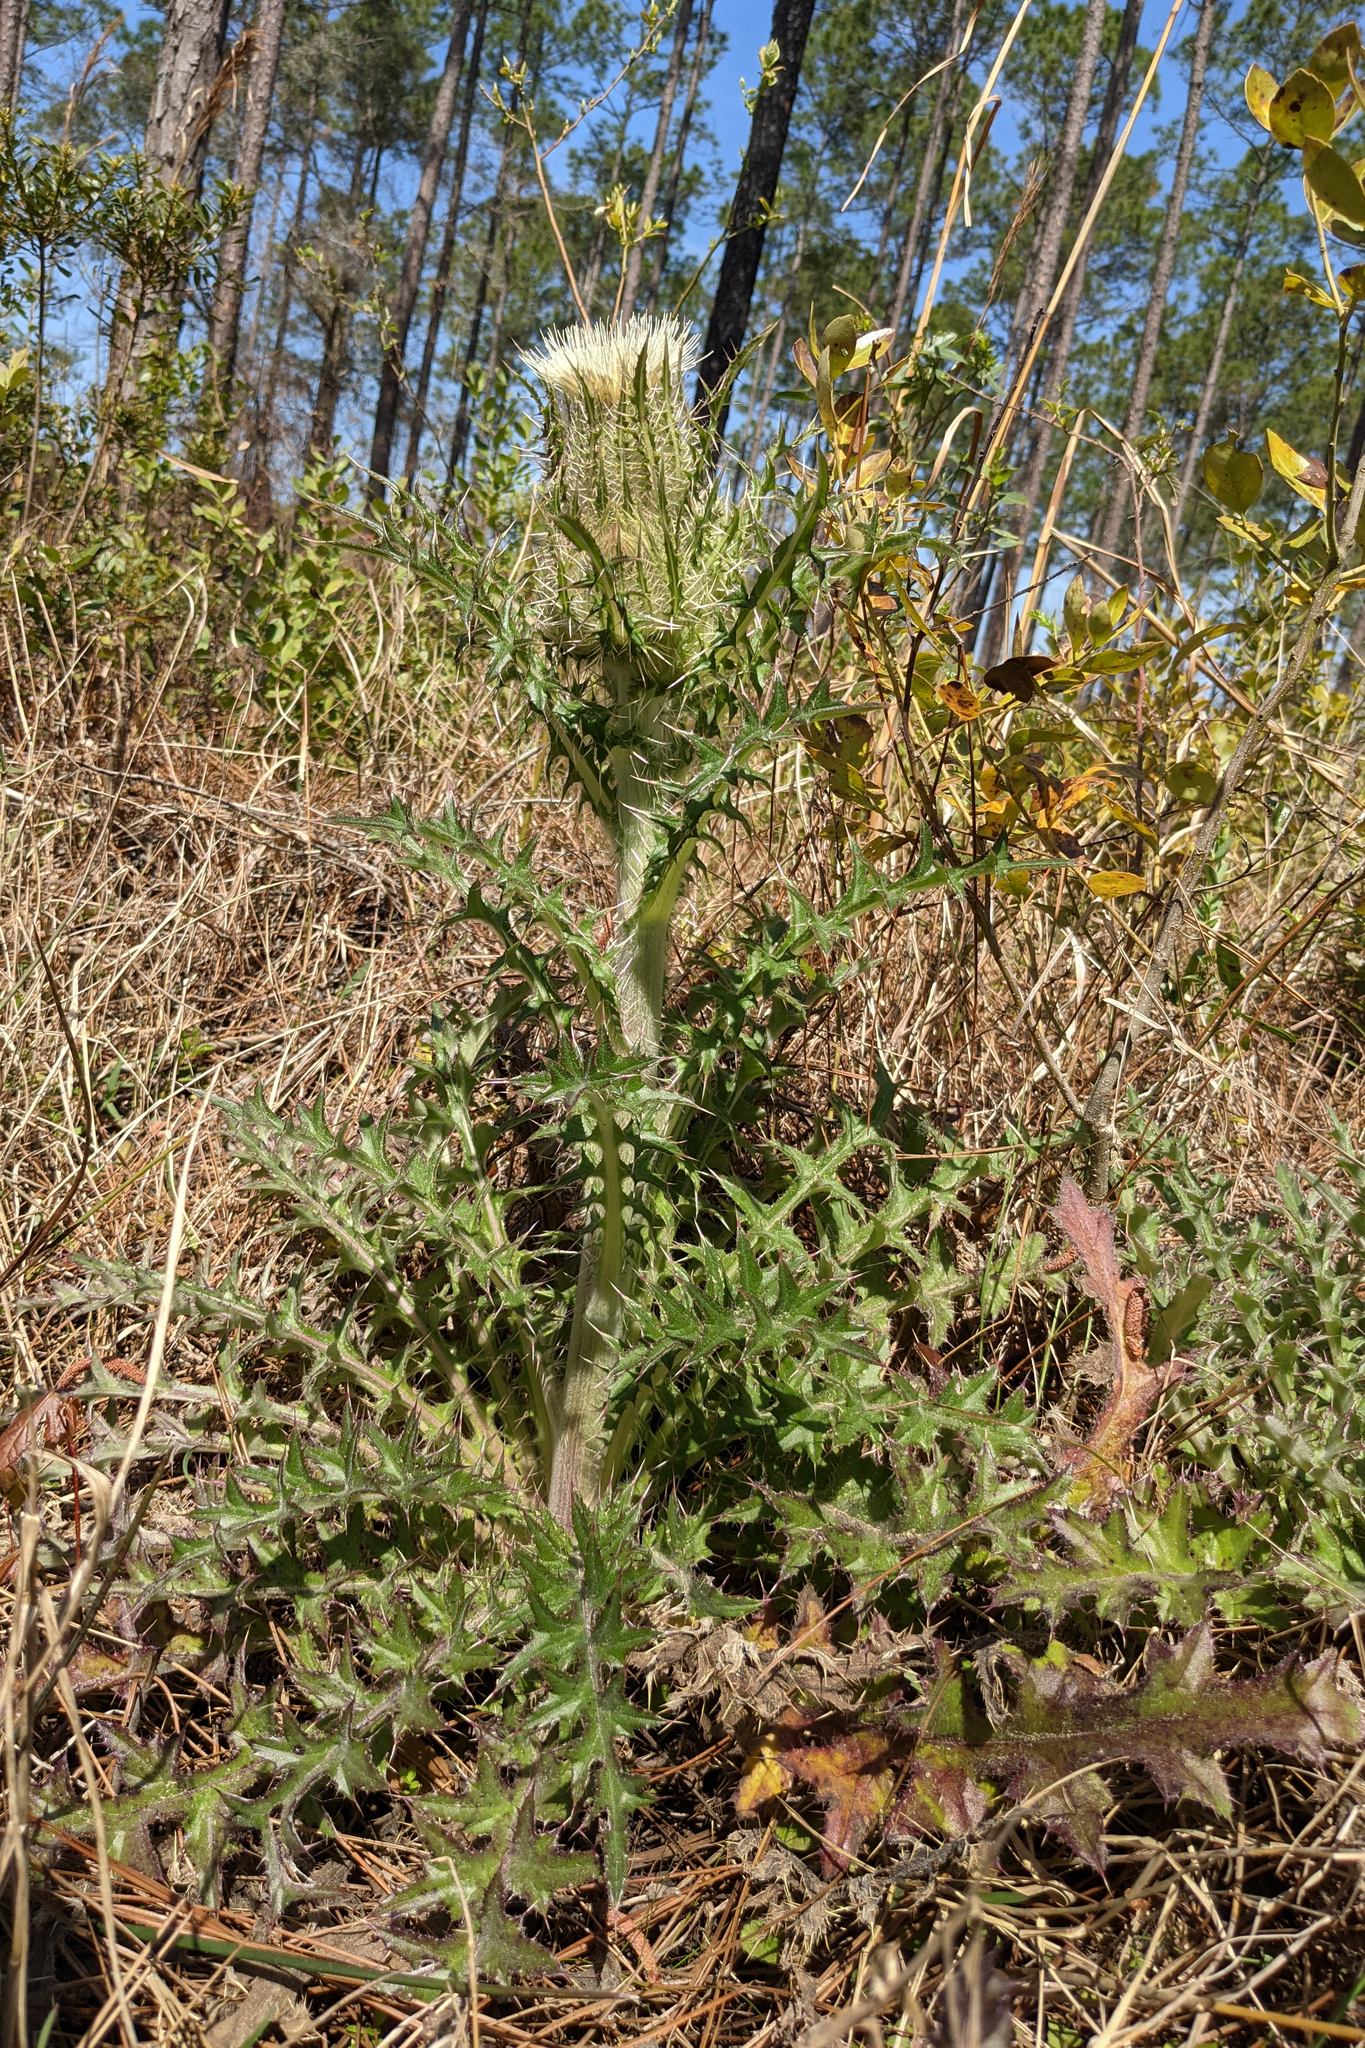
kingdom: Plantae
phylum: Tracheophyta
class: Magnoliopsida
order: Asterales
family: Asteraceae
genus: Cirsium
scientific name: Cirsium horridulum
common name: Bristly thistle
